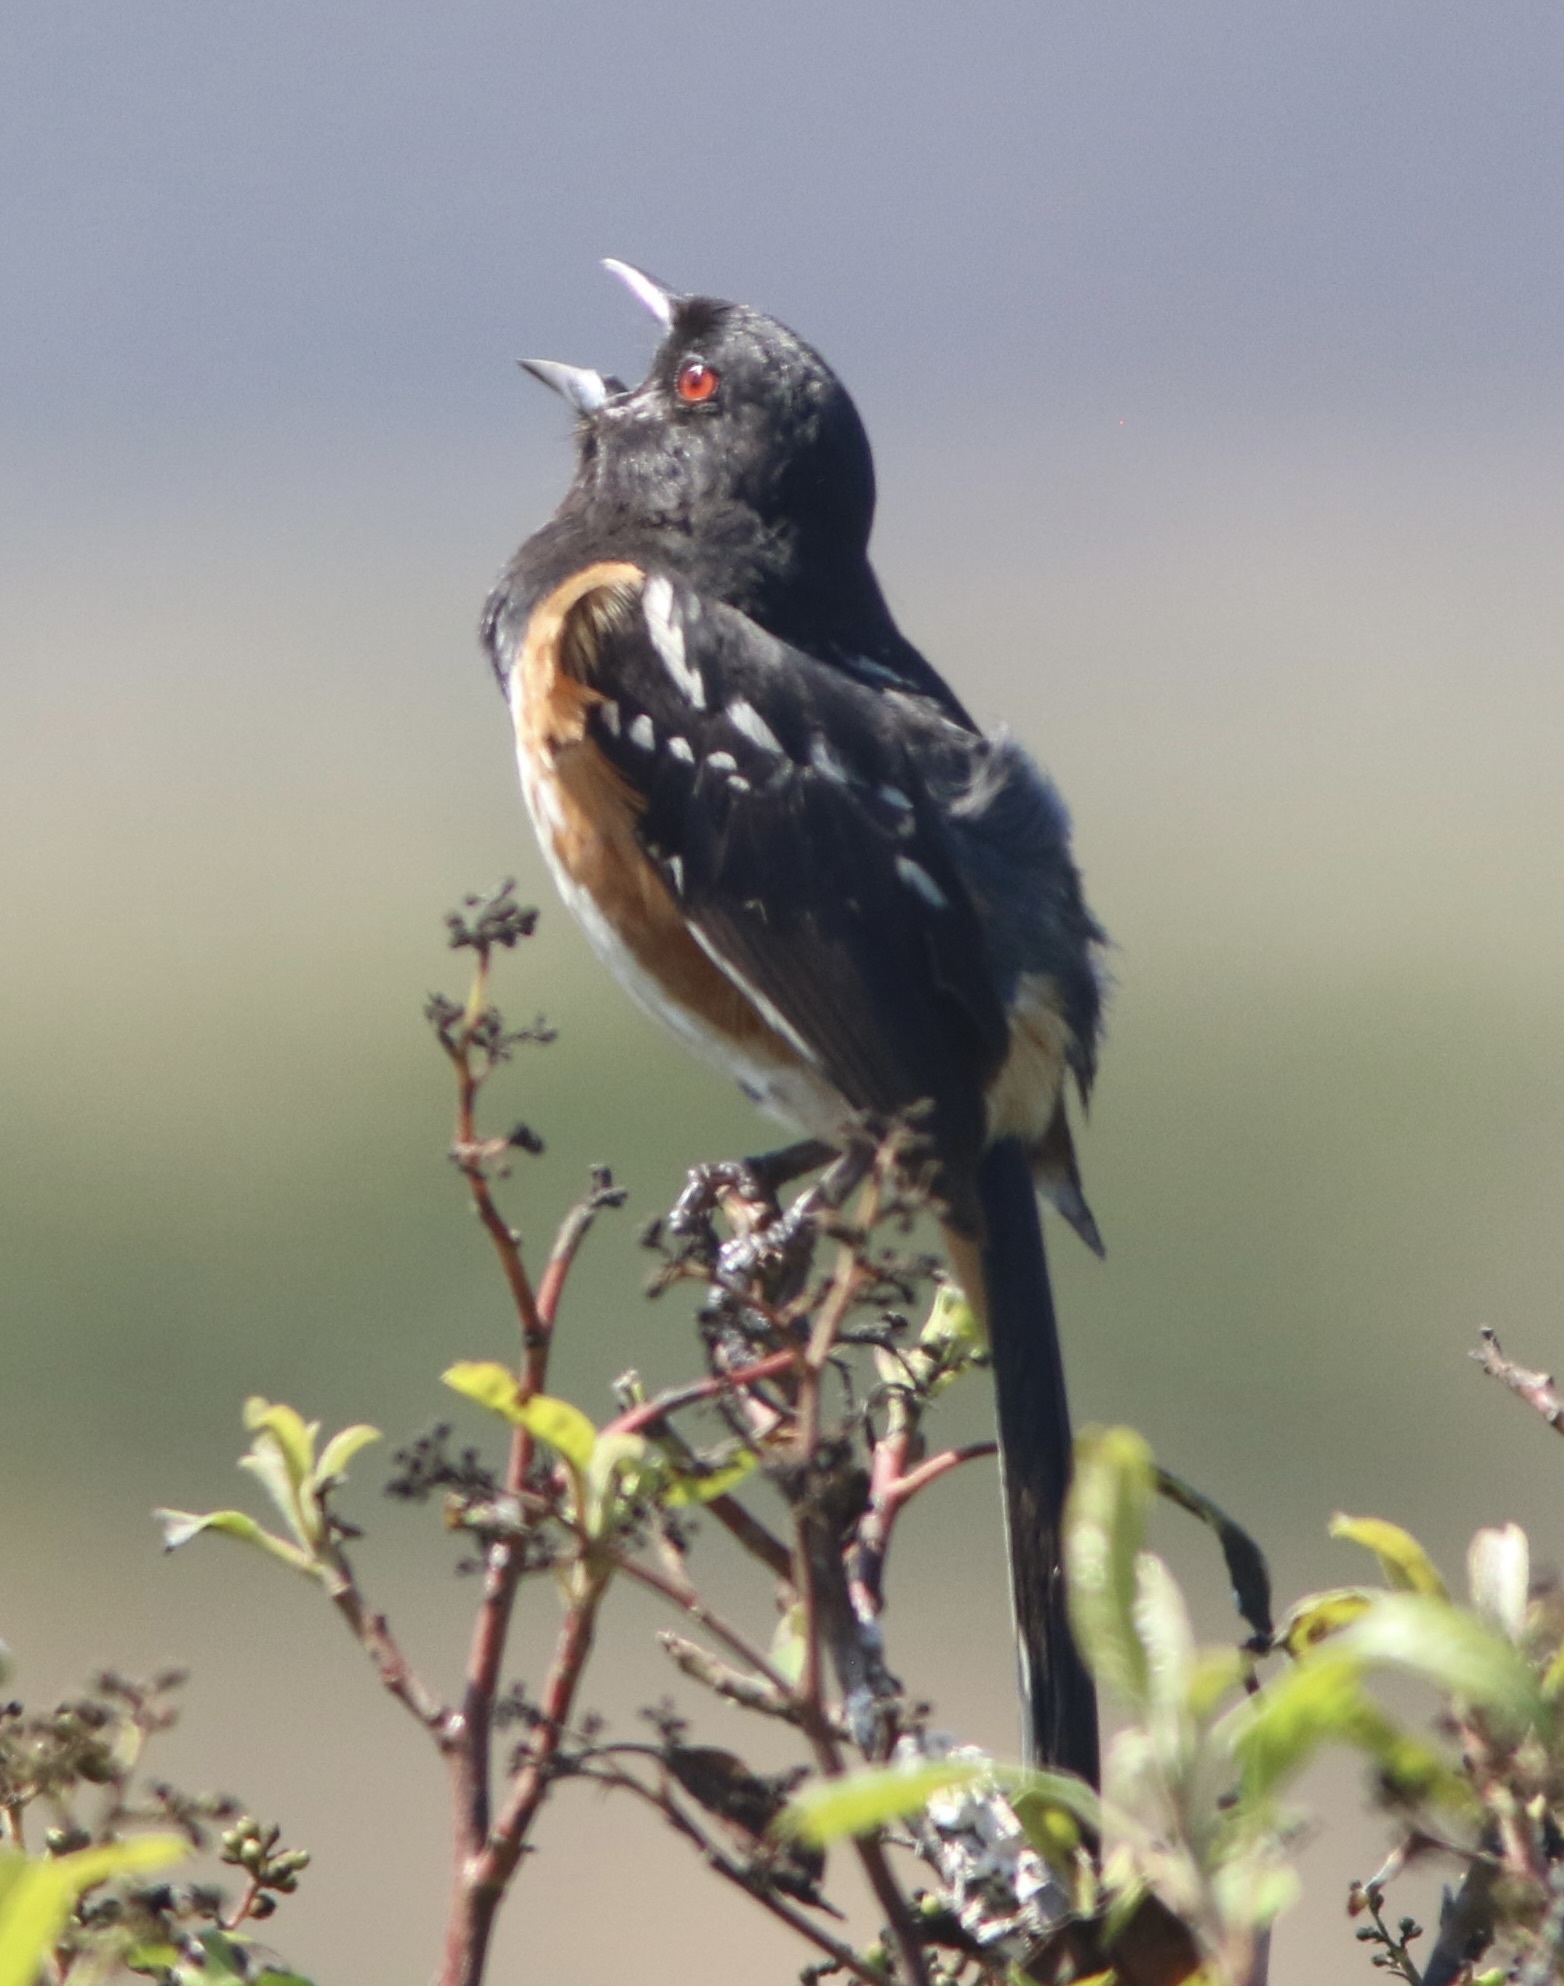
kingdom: Animalia
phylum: Chordata
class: Aves
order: Passeriformes
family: Passerellidae
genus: Pipilo
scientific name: Pipilo maculatus
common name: Spotted towhee
